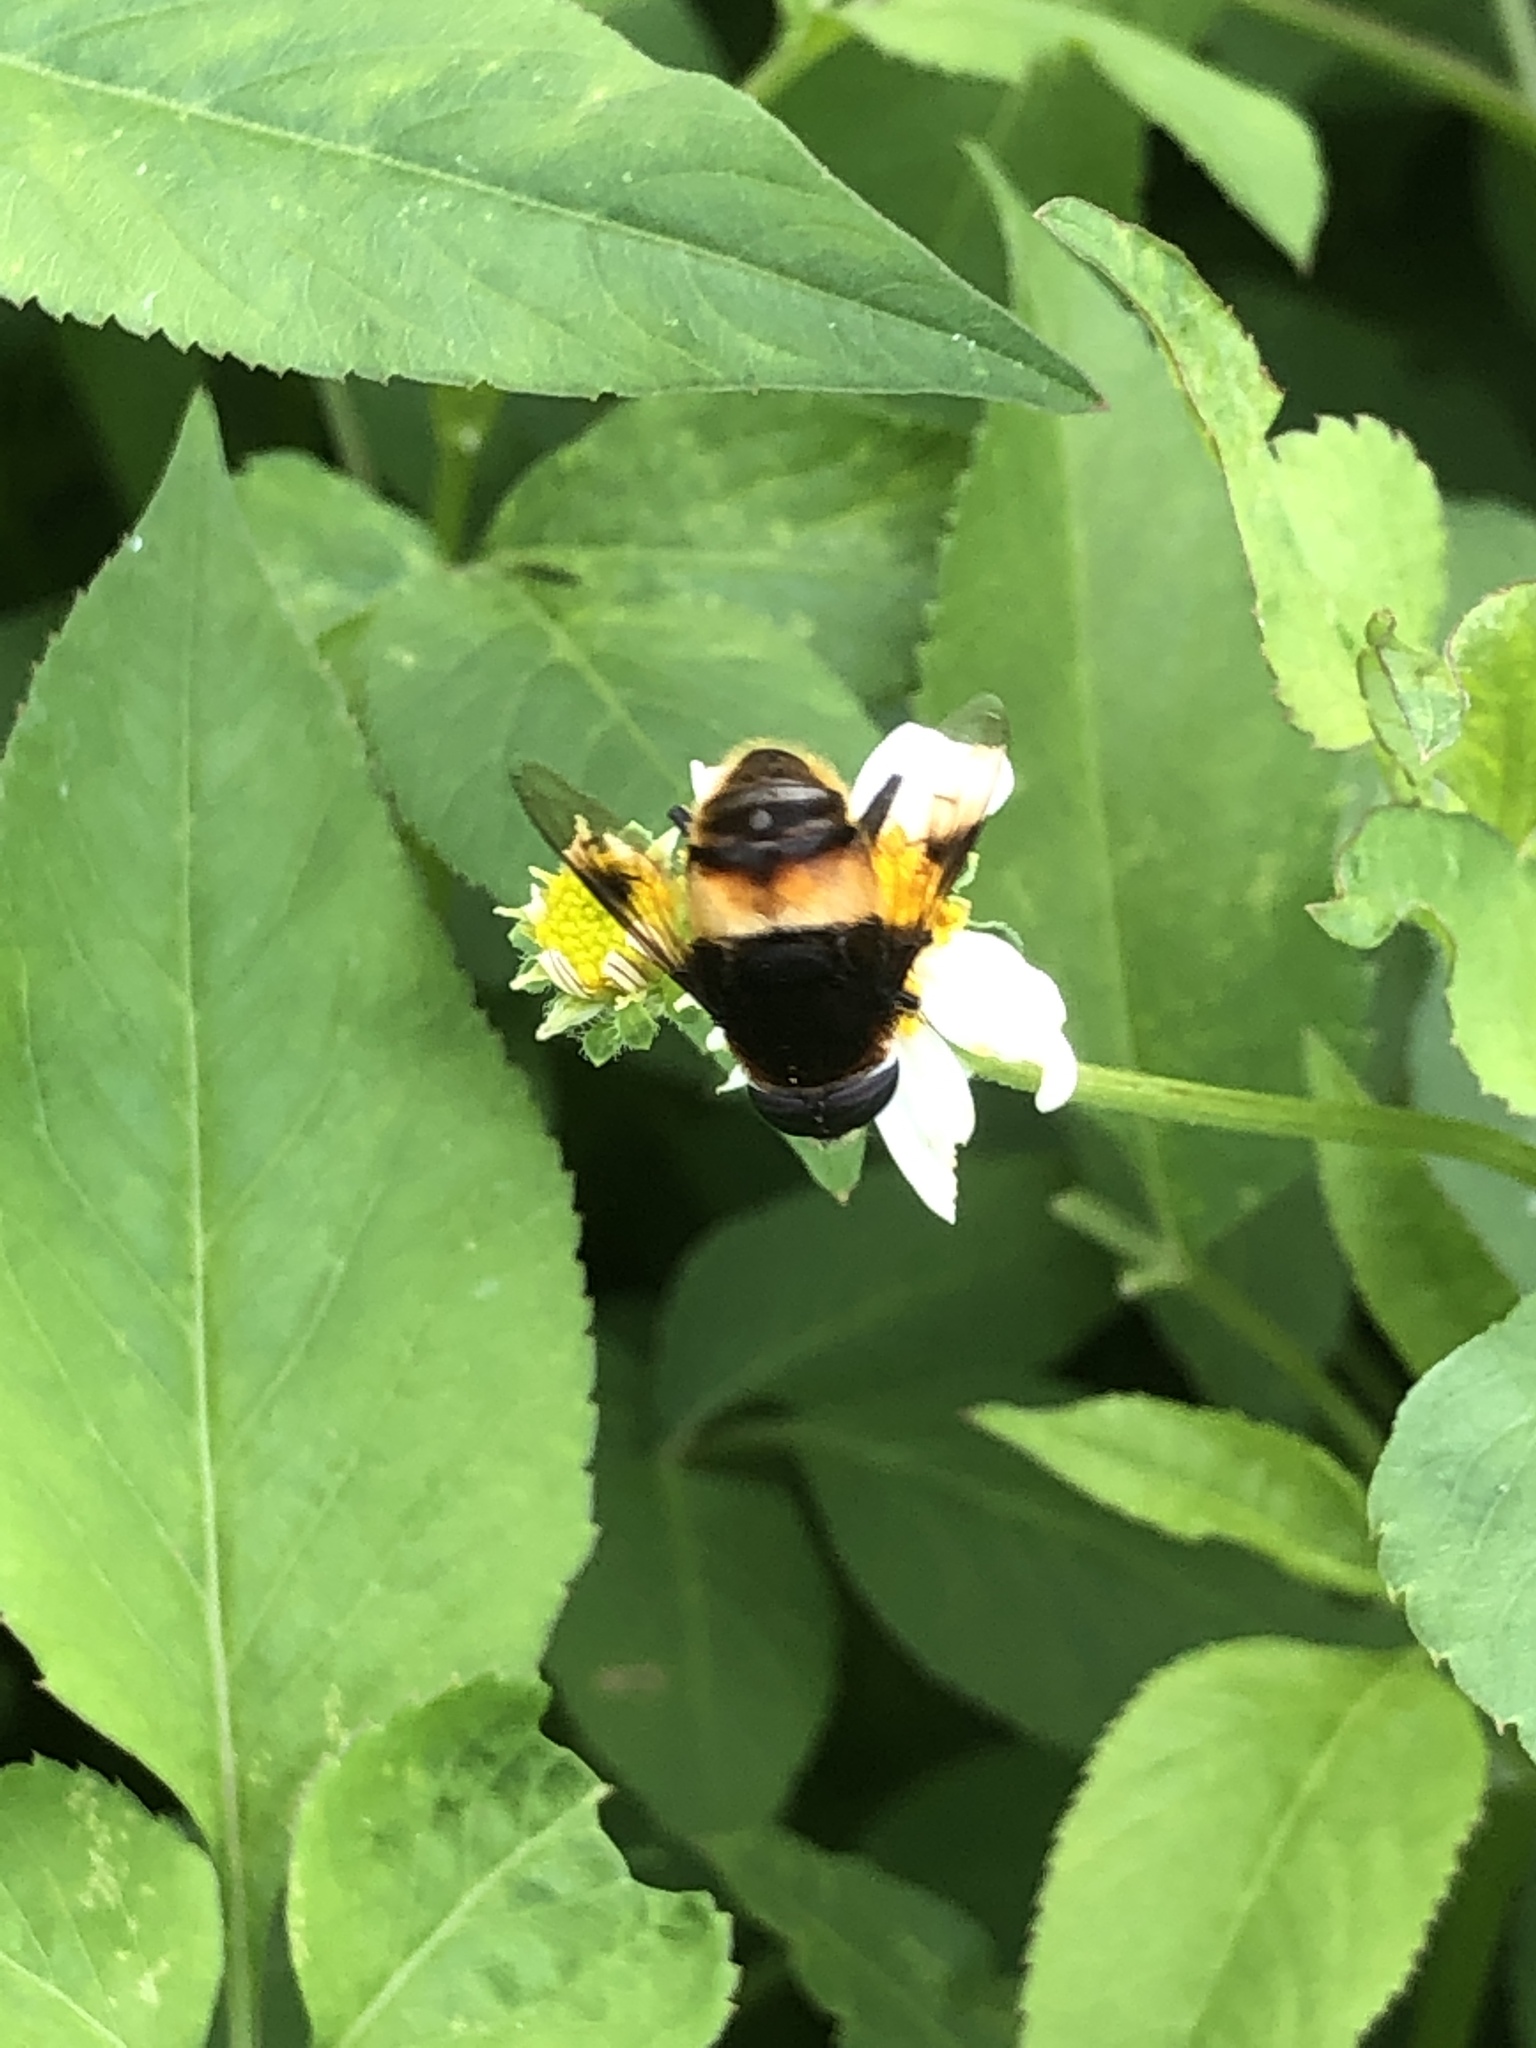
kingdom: Animalia
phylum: Arthropoda
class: Insecta
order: Diptera
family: Syrphidae
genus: Phytomia
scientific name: Phytomia zonata
